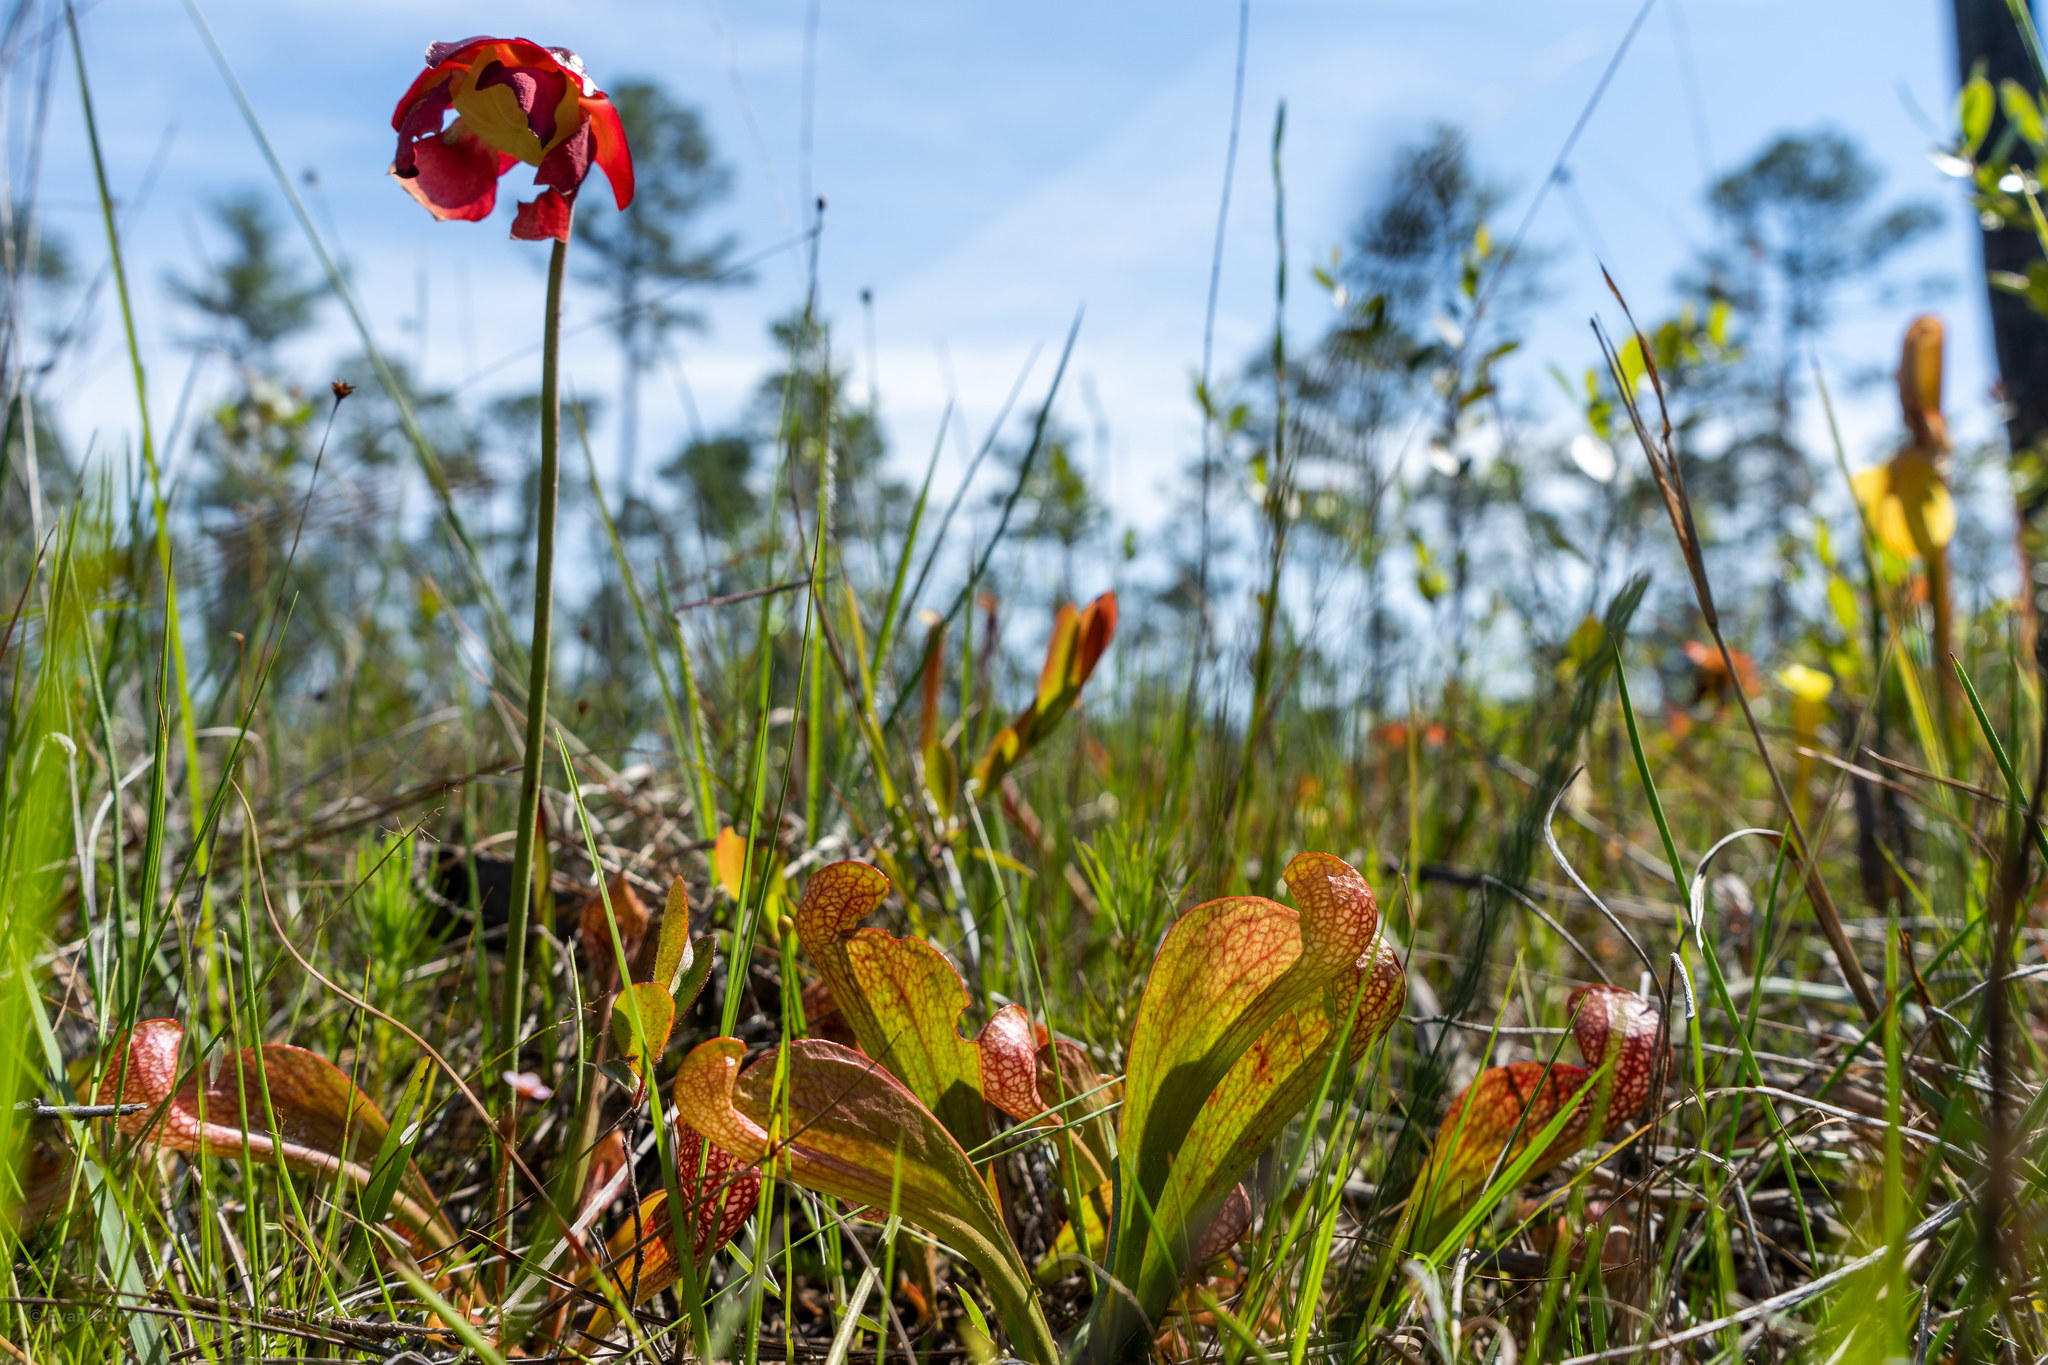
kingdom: Plantae
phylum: Tracheophyta
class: Magnoliopsida
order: Ericales
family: Sarraceniaceae
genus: Sarracenia
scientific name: Sarracenia psittacina
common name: Parrot pitcherplant
